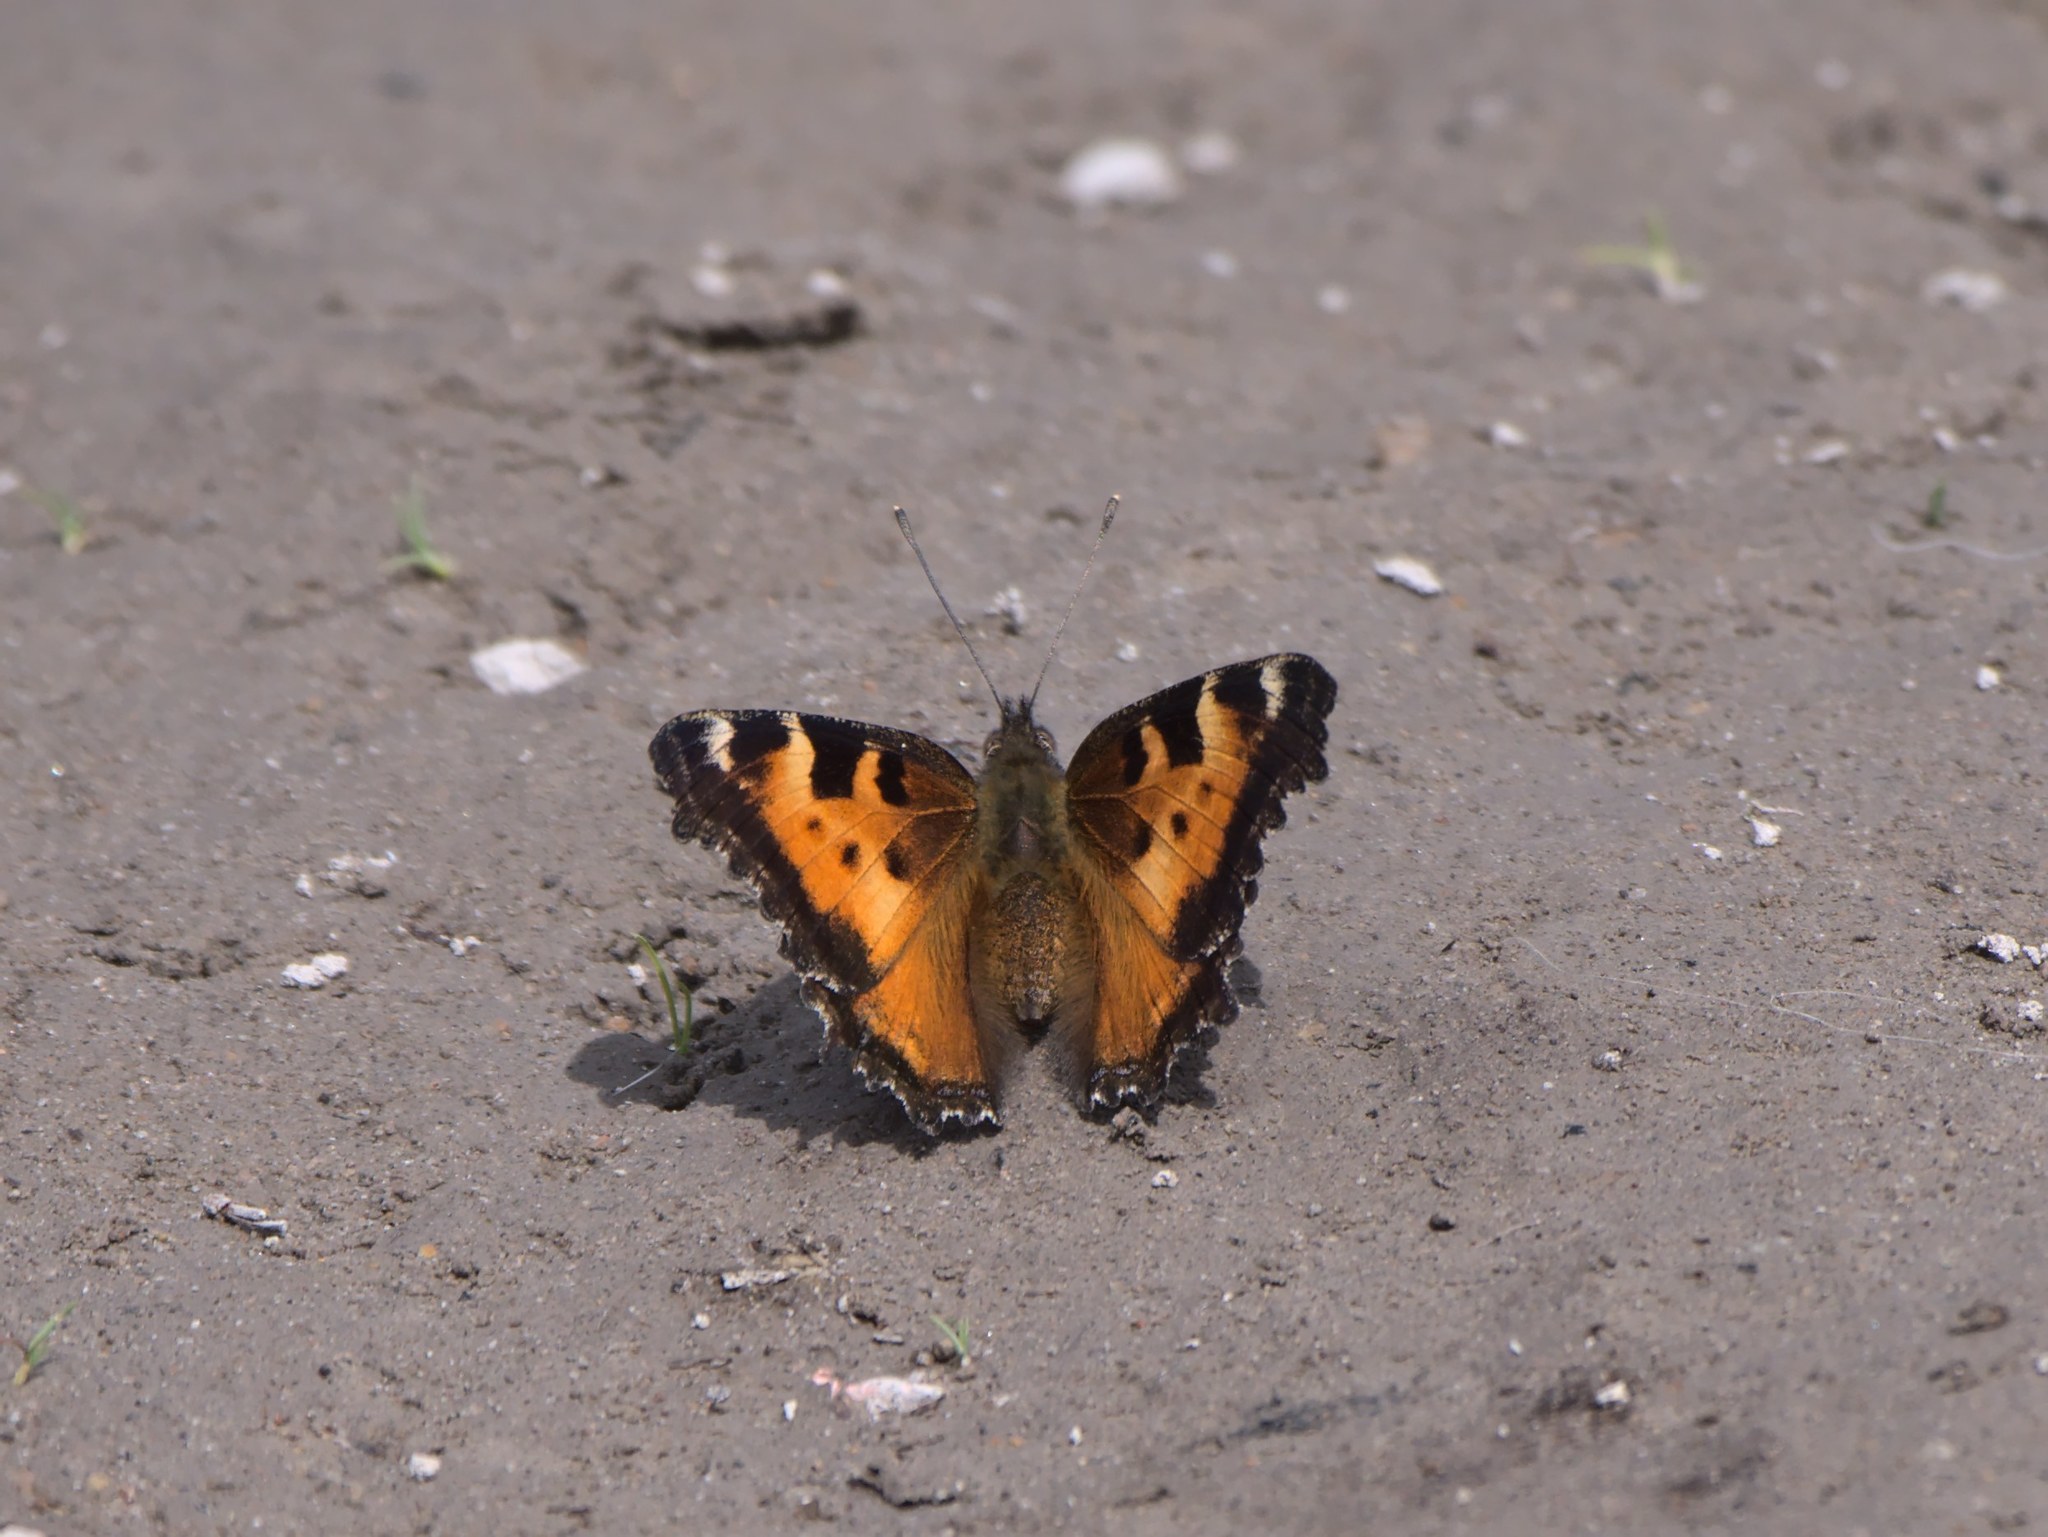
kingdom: Animalia
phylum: Arthropoda
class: Insecta
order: Lepidoptera
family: Nymphalidae
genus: Nymphalis
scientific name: Nymphalis californica
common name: California tortoiseshell
